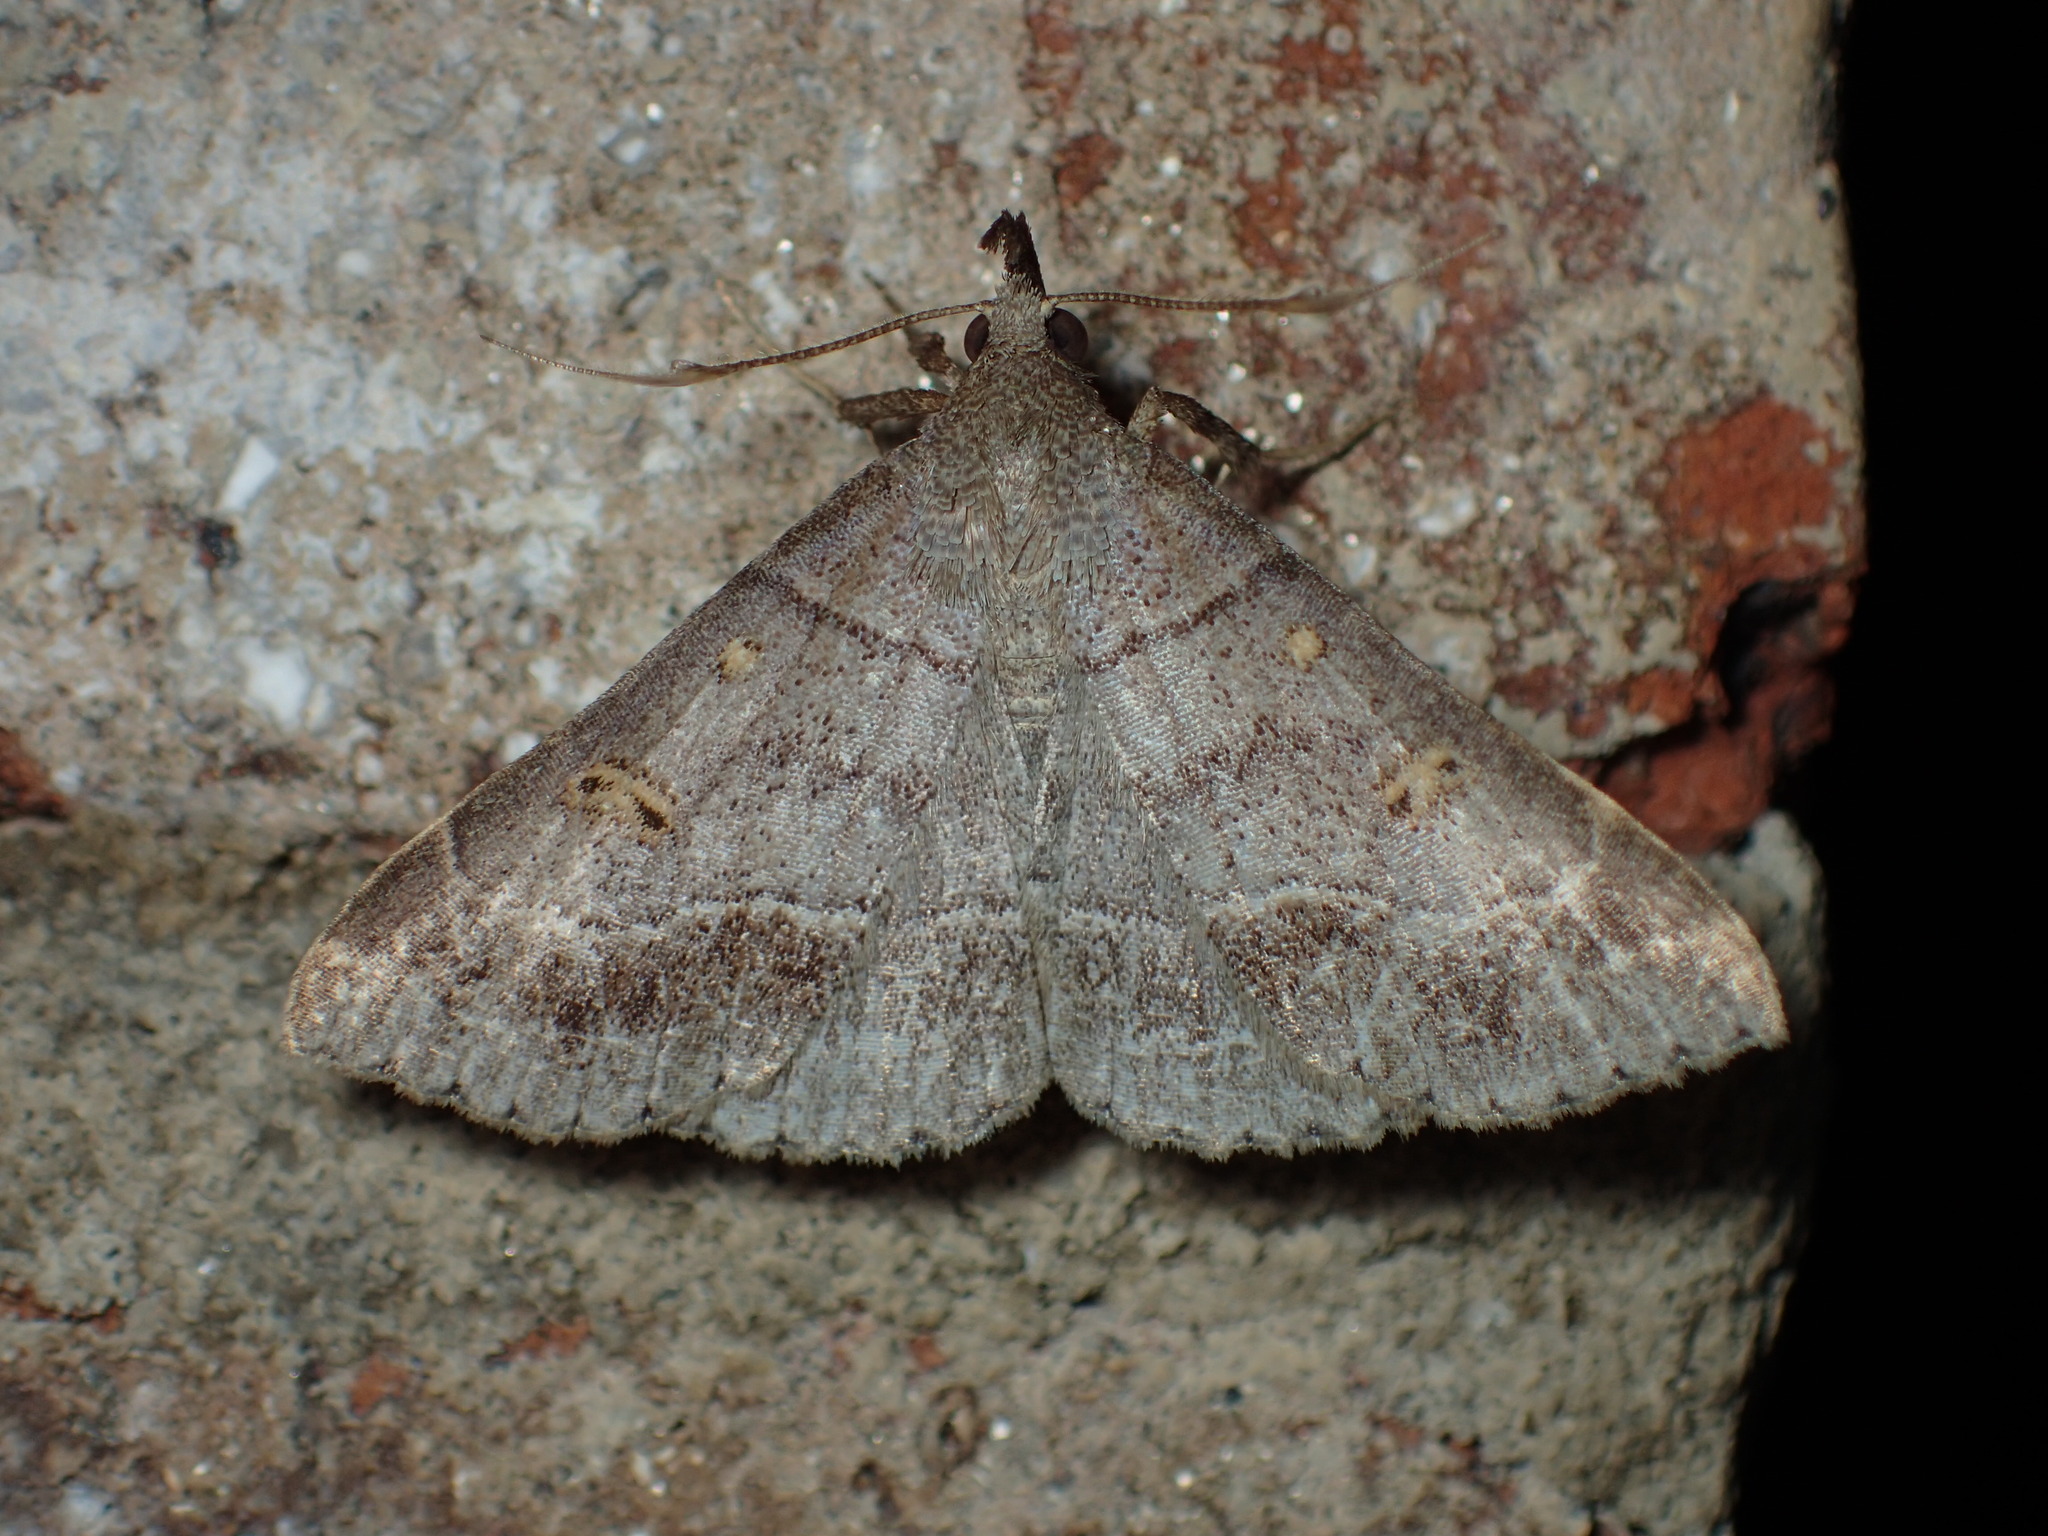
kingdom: Animalia
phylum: Arthropoda
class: Insecta
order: Lepidoptera
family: Erebidae
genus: Renia
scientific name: Renia flavipunctalis
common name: Yellow-spotted renia moth
